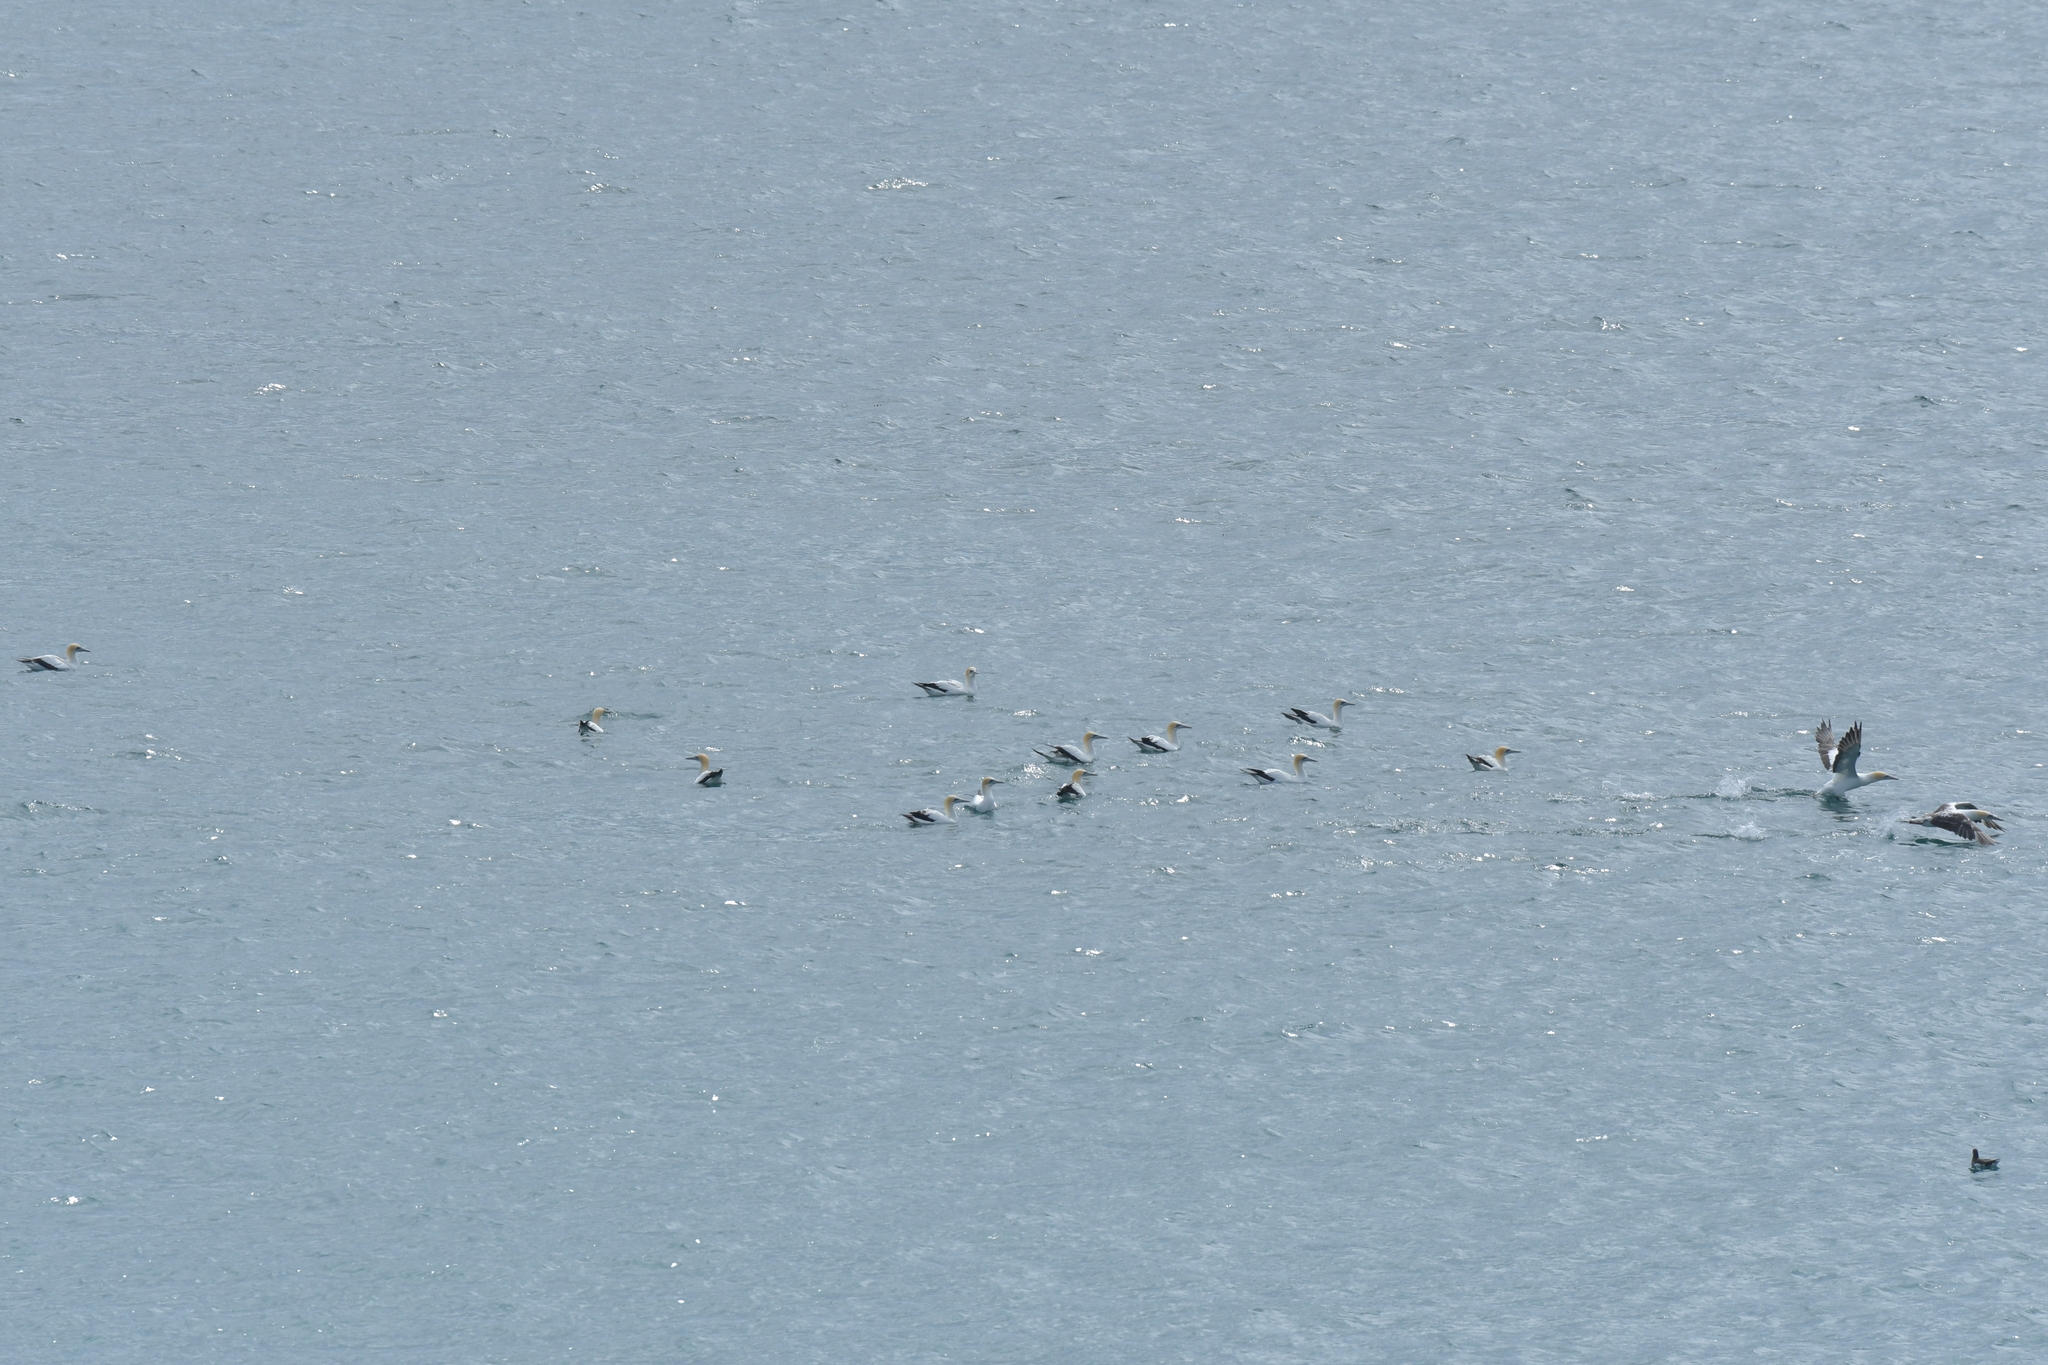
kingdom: Animalia
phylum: Chordata
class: Aves
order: Suliformes
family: Sulidae
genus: Morus
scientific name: Morus serrator
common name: Australasian gannet
